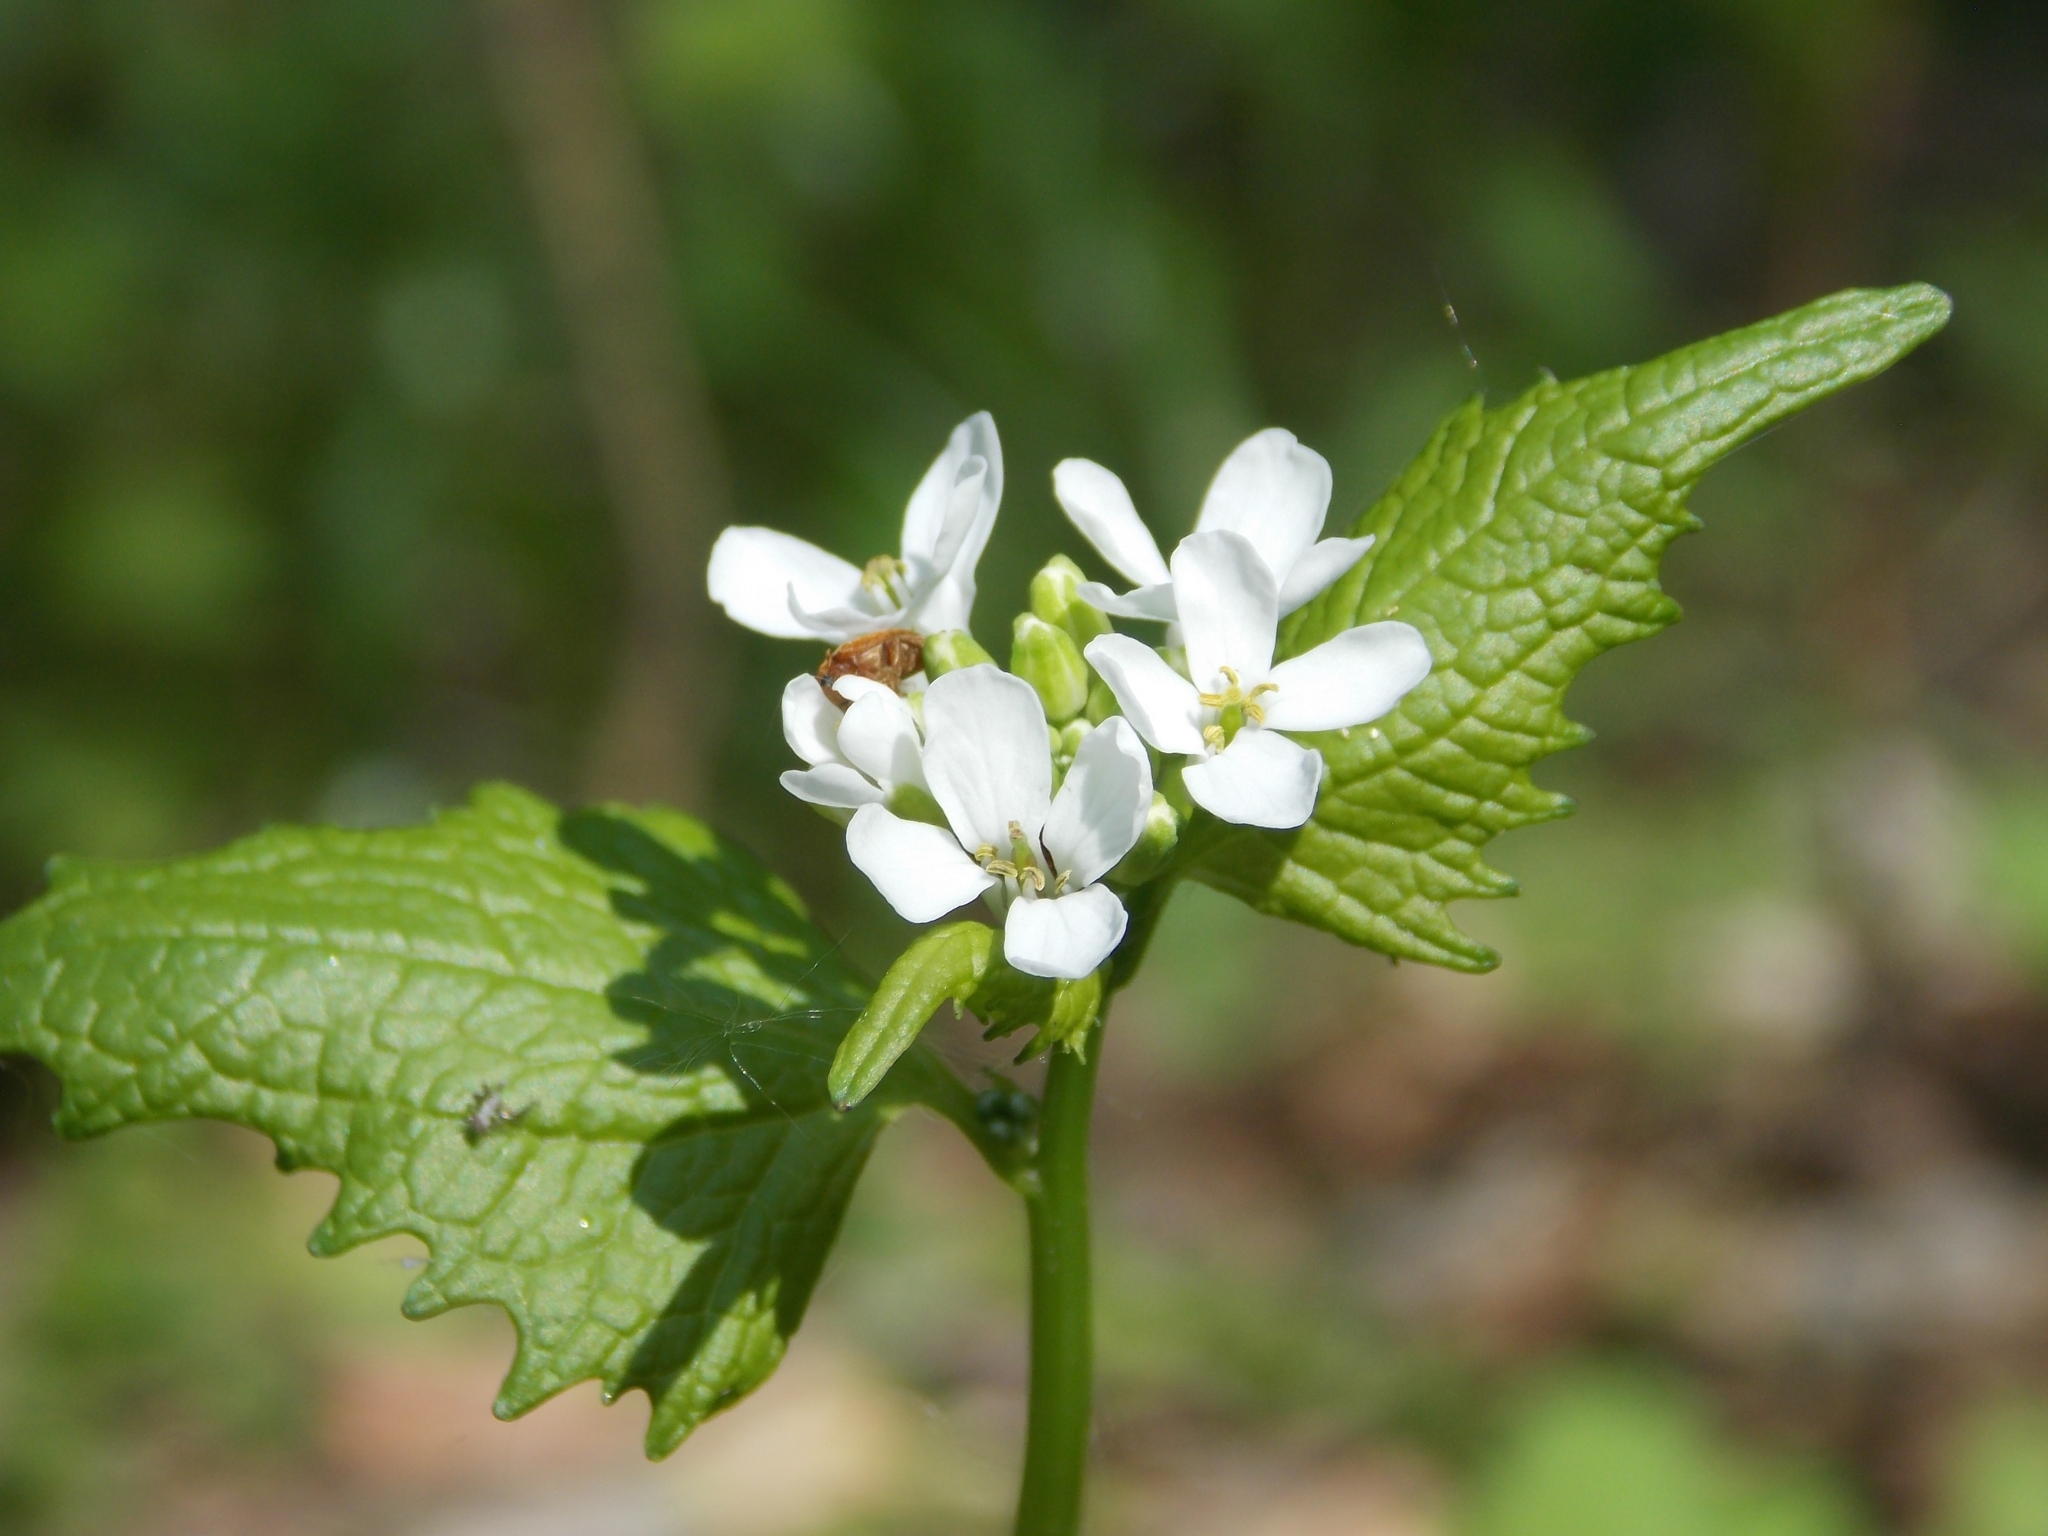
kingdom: Plantae
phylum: Tracheophyta
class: Magnoliopsida
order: Brassicales
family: Brassicaceae
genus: Alliaria
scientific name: Alliaria petiolata
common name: Garlic mustard
